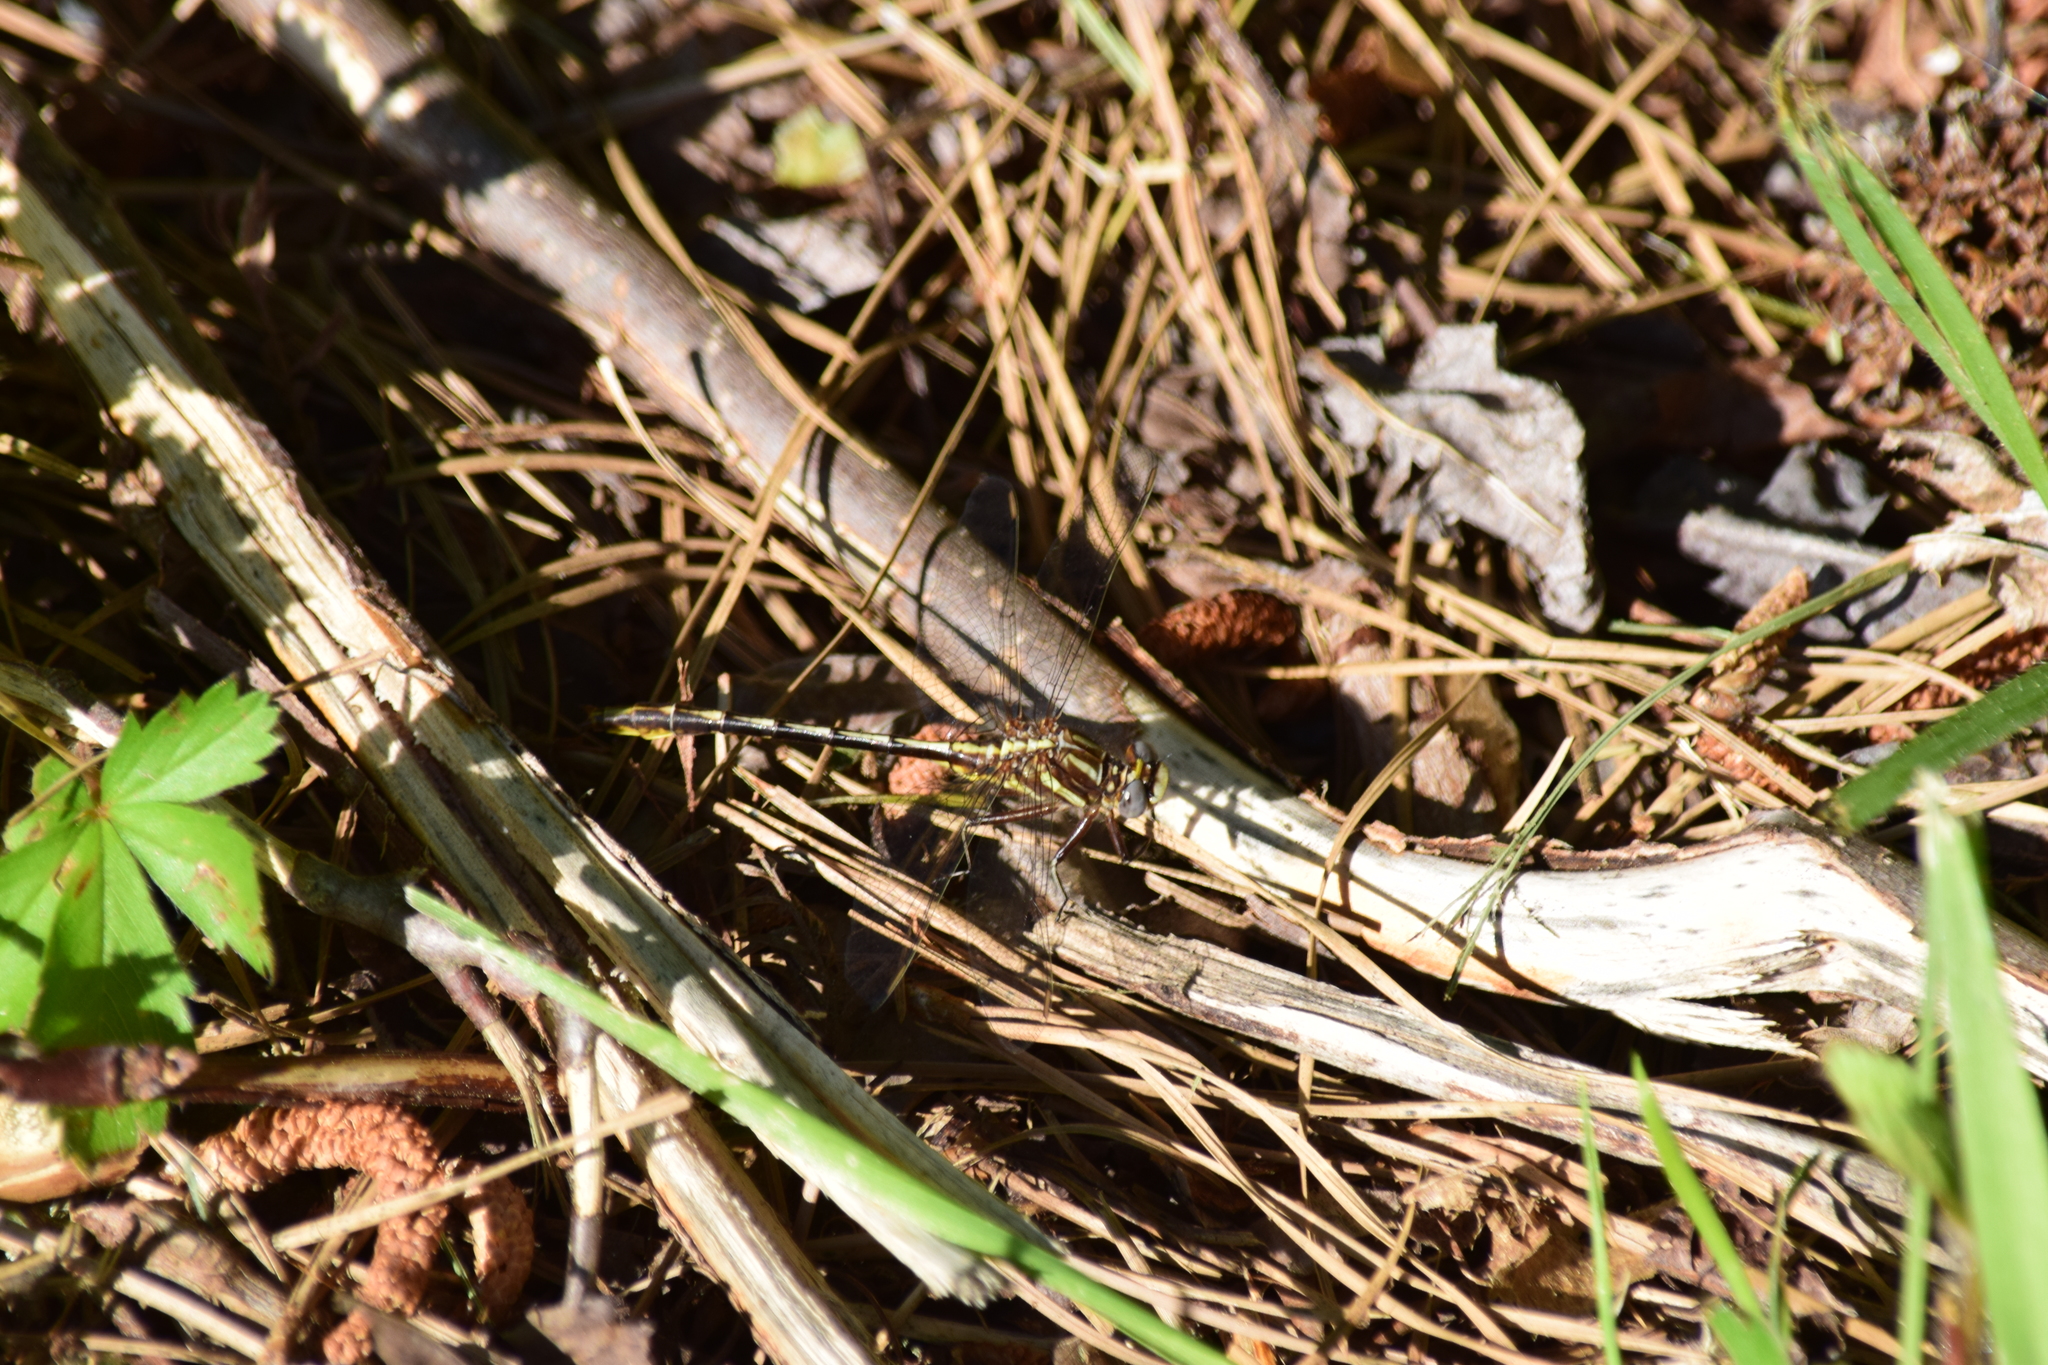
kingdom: Animalia
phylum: Arthropoda
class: Insecta
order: Odonata
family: Gomphidae
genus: Phanogomphus
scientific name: Phanogomphus exilis
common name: Lancet clubtail
